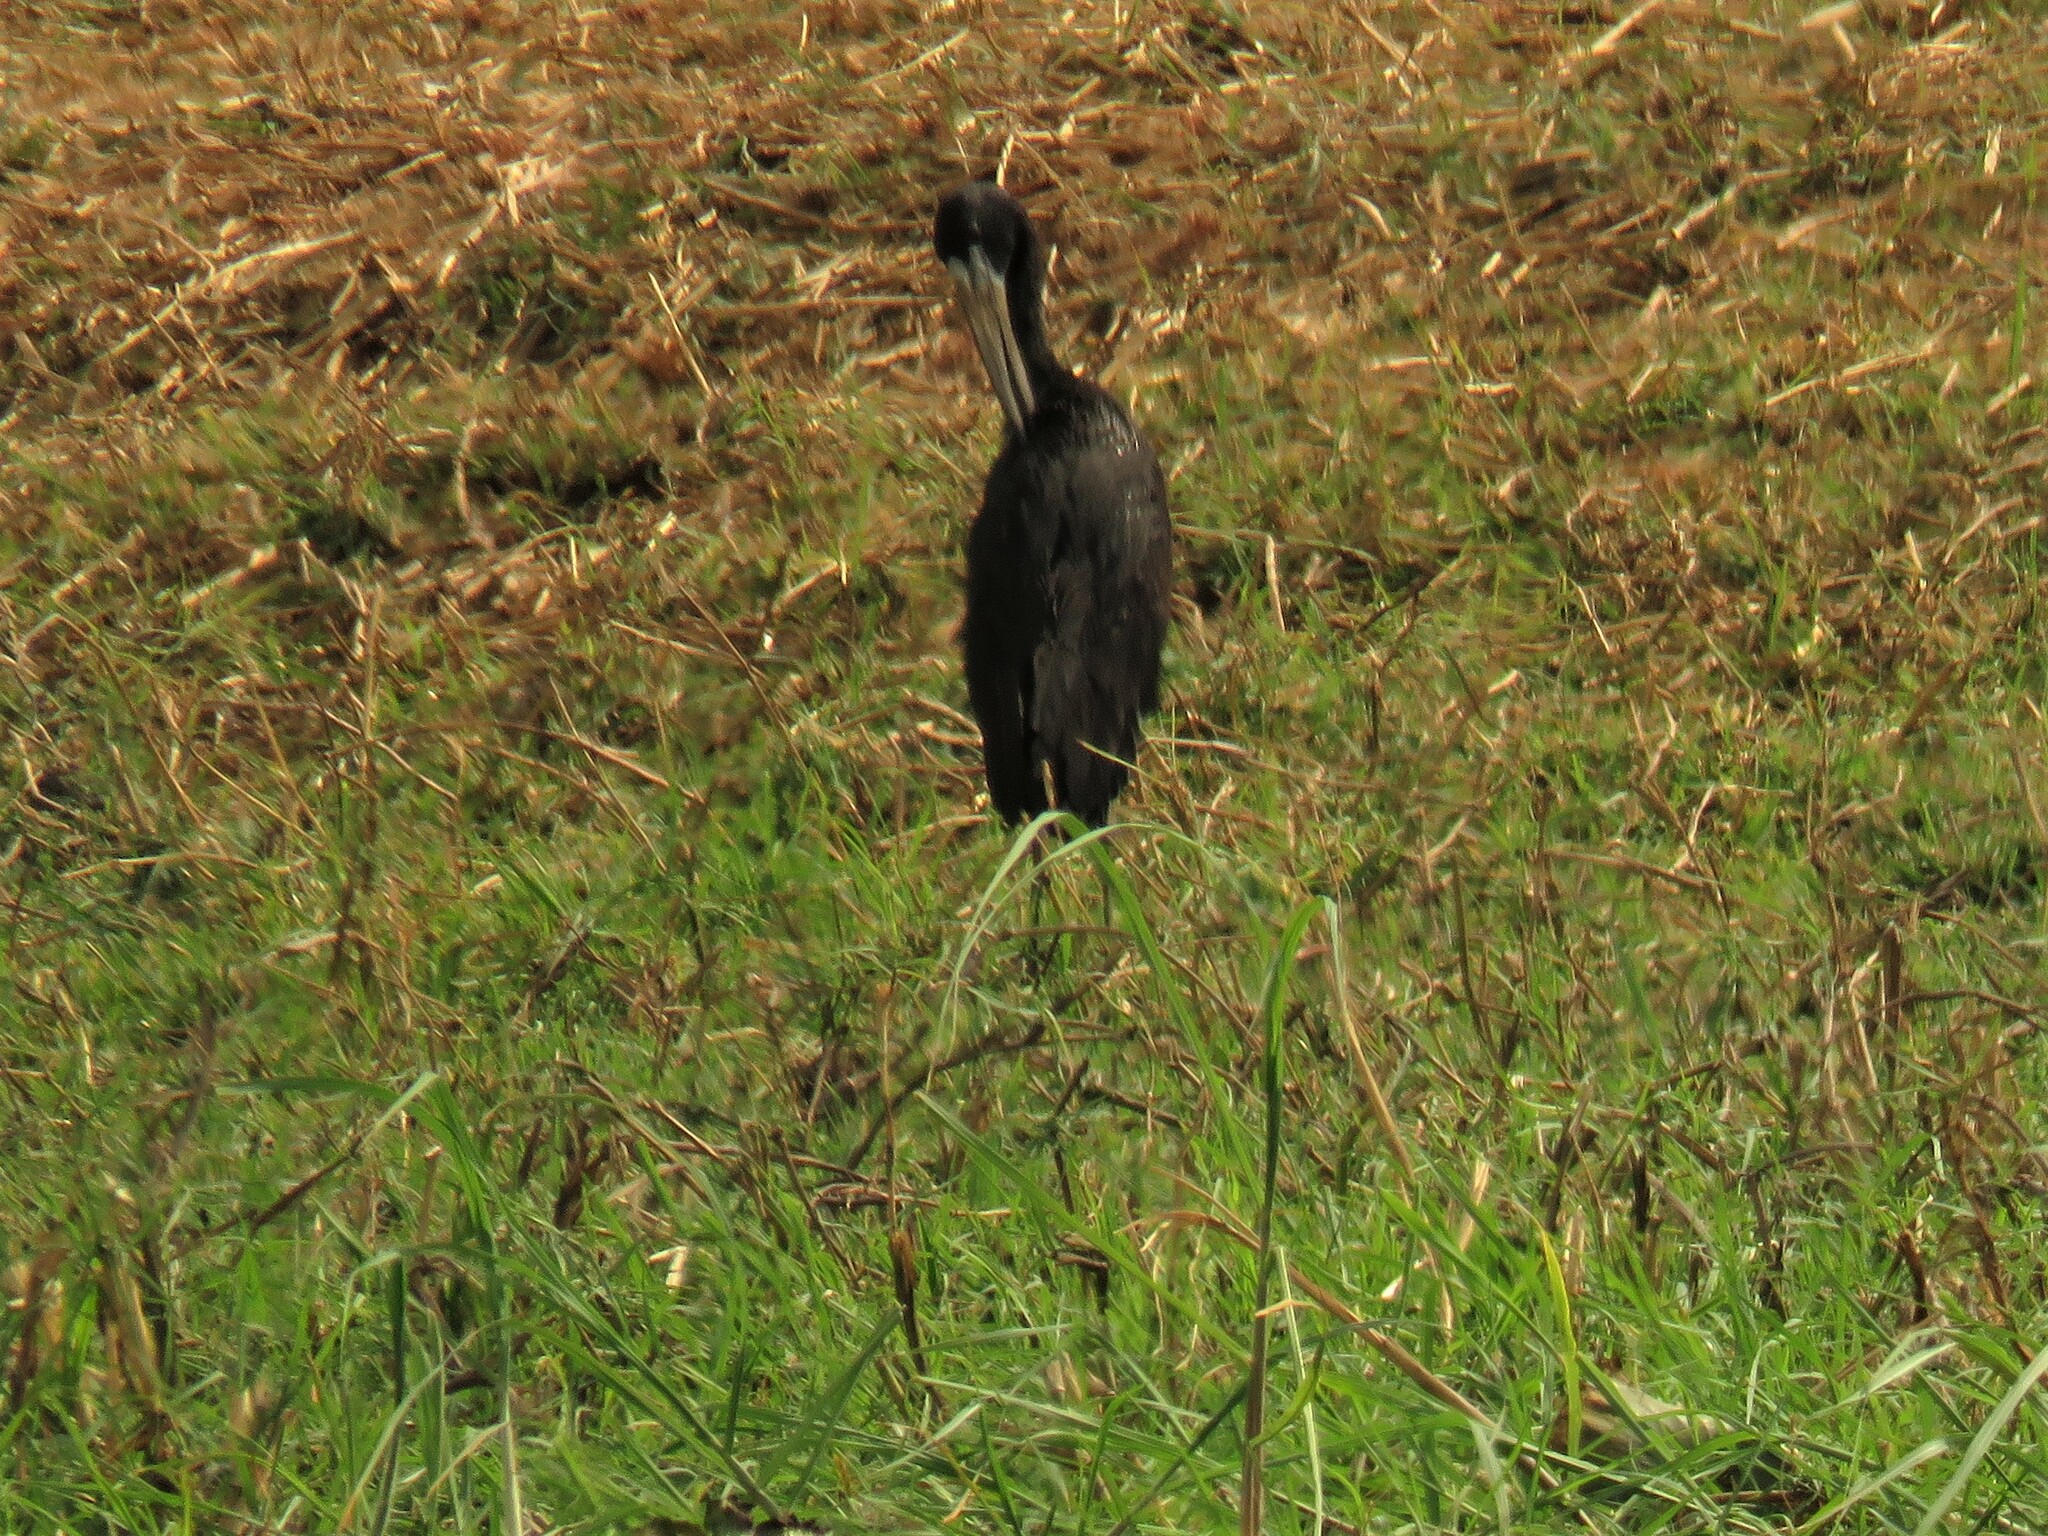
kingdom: Animalia
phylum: Chordata
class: Aves
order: Ciconiiformes
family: Ciconiidae
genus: Anastomus
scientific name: Anastomus lamelligerus
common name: African openbill
